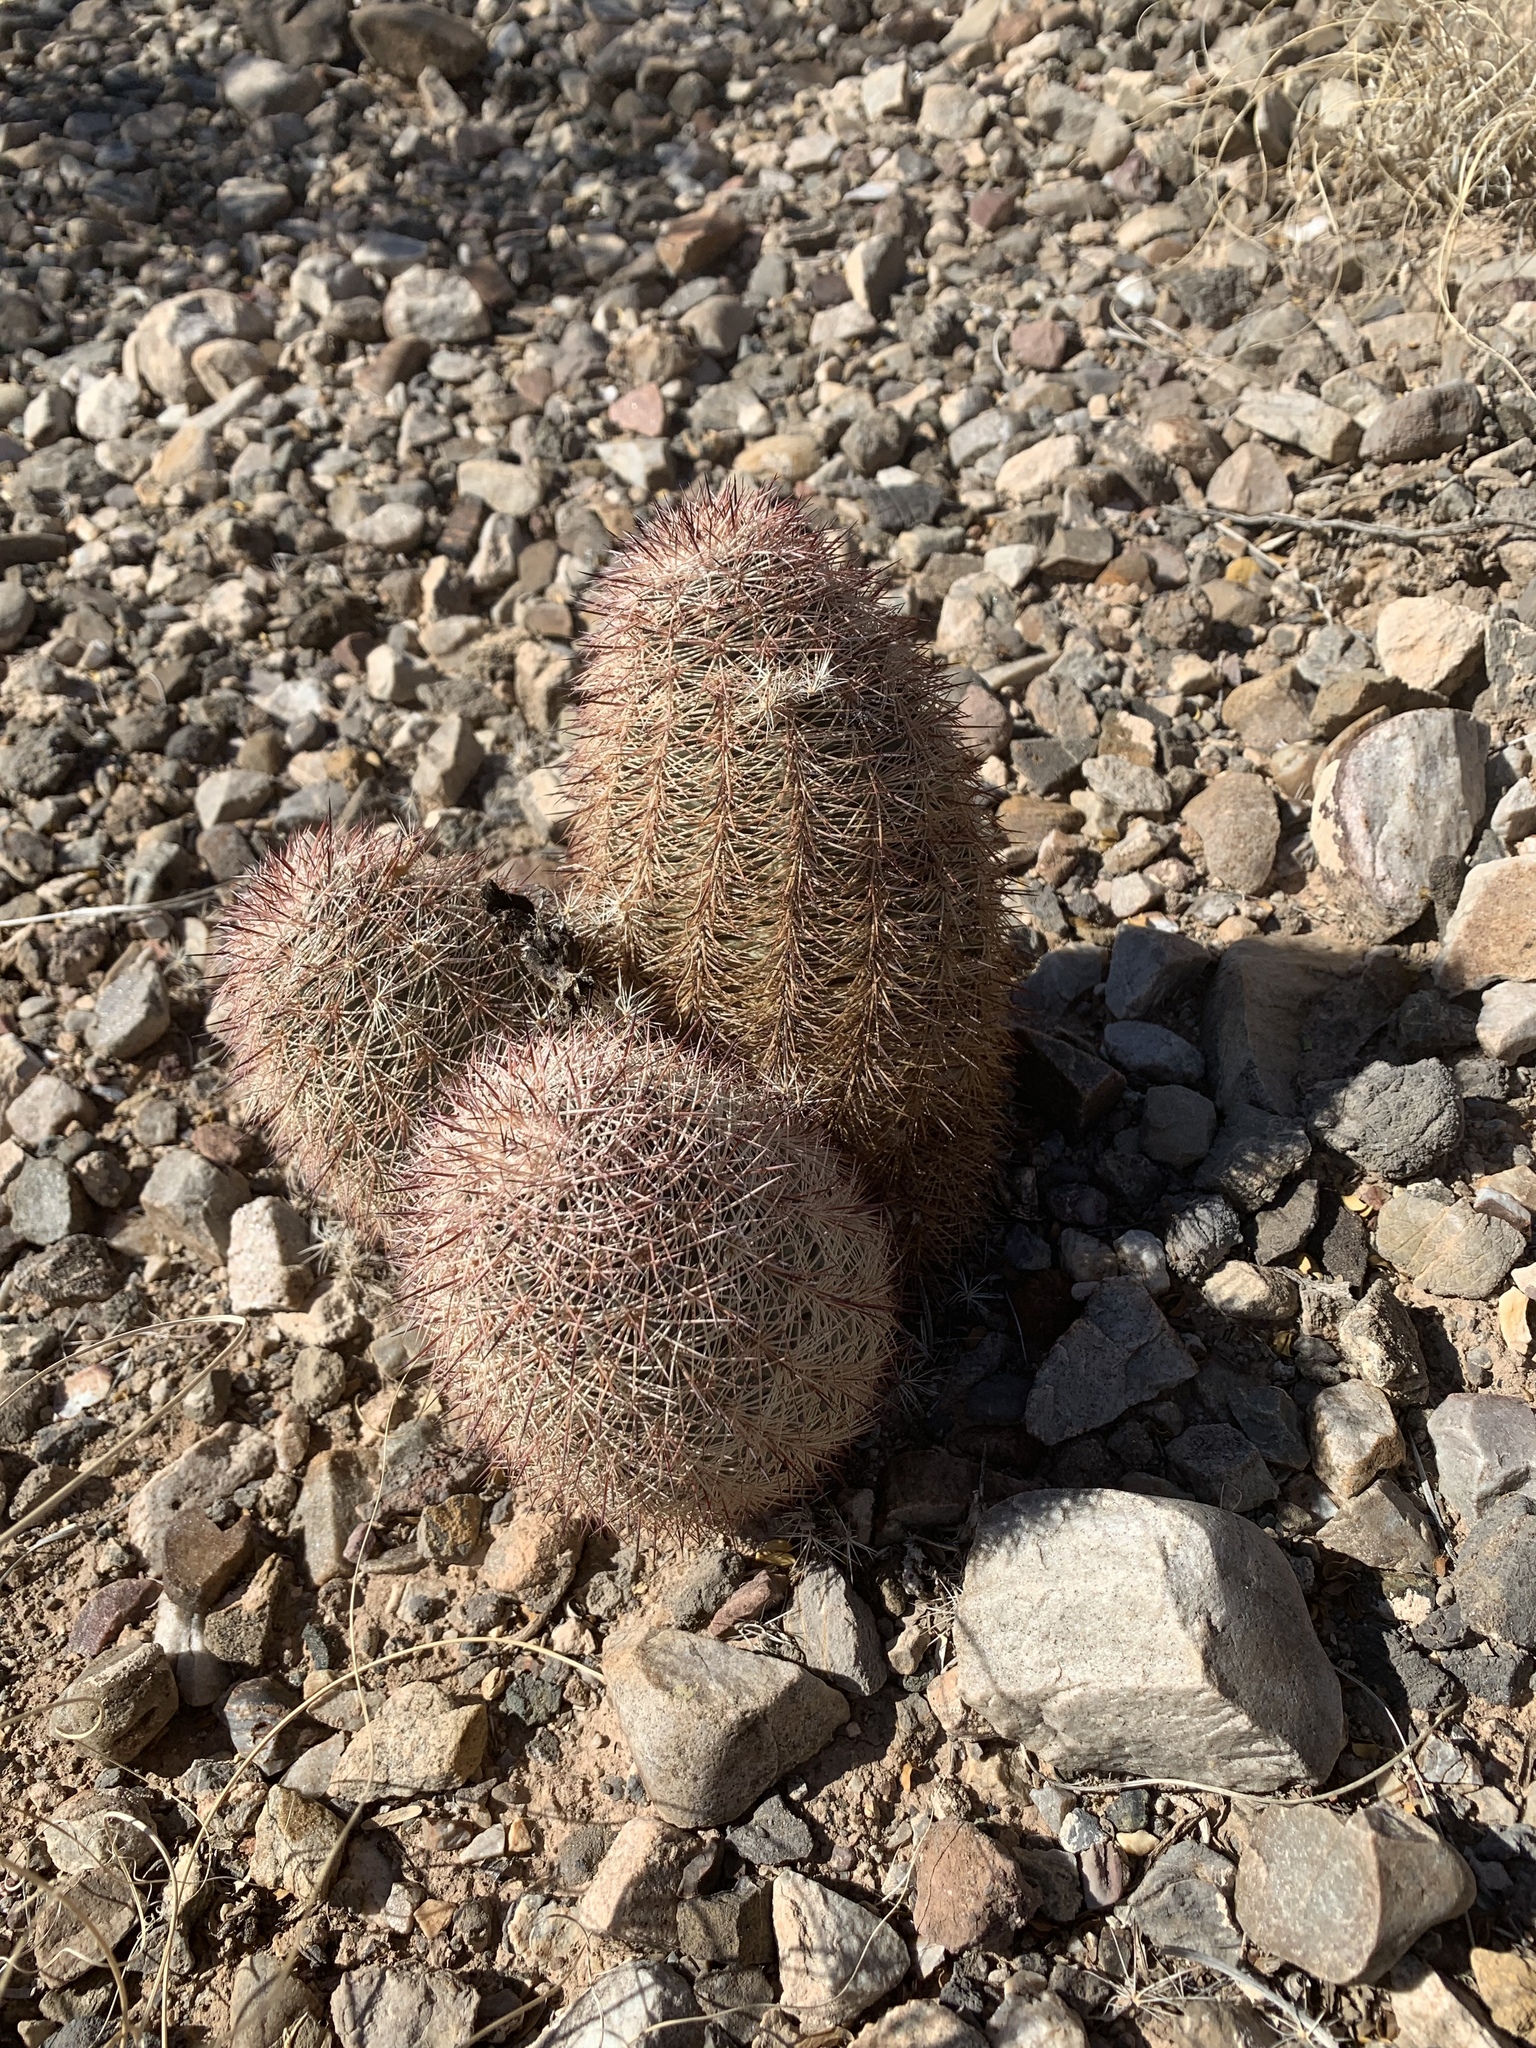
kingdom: Plantae
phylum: Tracheophyta
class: Magnoliopsida
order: Caryophyllales
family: Cactaceae
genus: Echinocereus
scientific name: Echinocereus dasyacanthus
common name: Spiny hedgehog cactus
